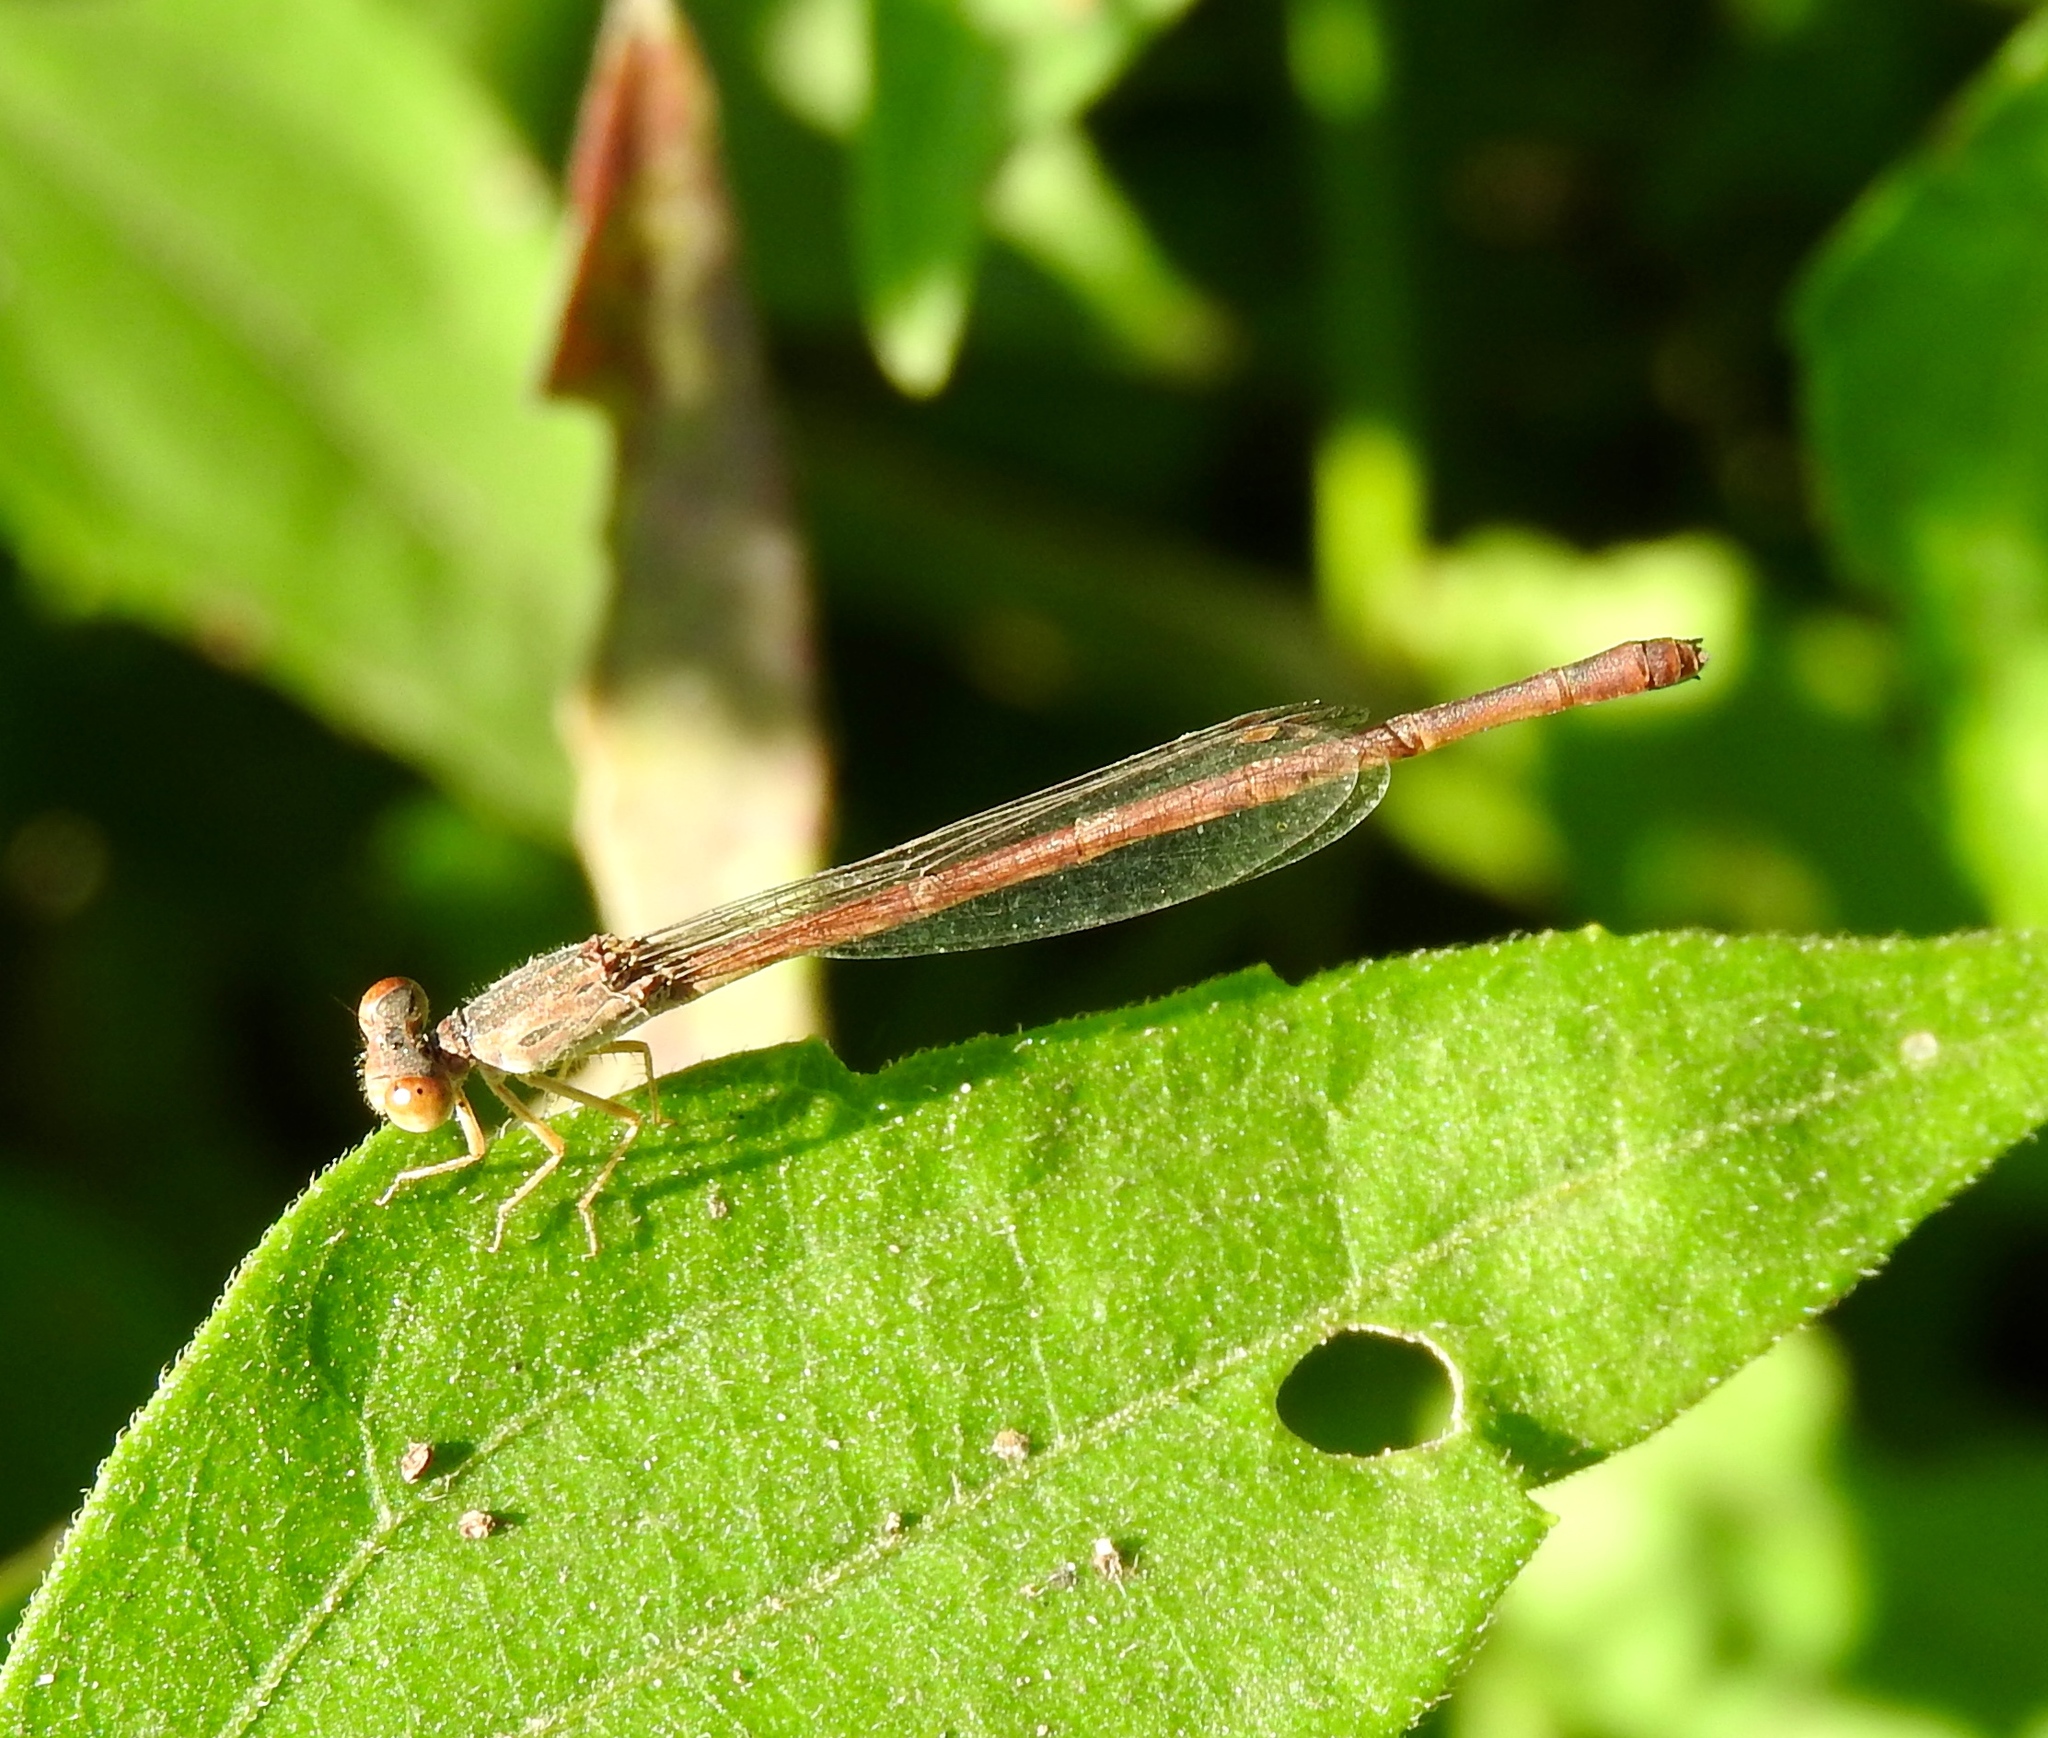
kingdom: Animalia
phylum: Arthropoda
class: Insecta
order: Odonata
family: Coenagrionidae
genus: Telebasis
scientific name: Telebasis
